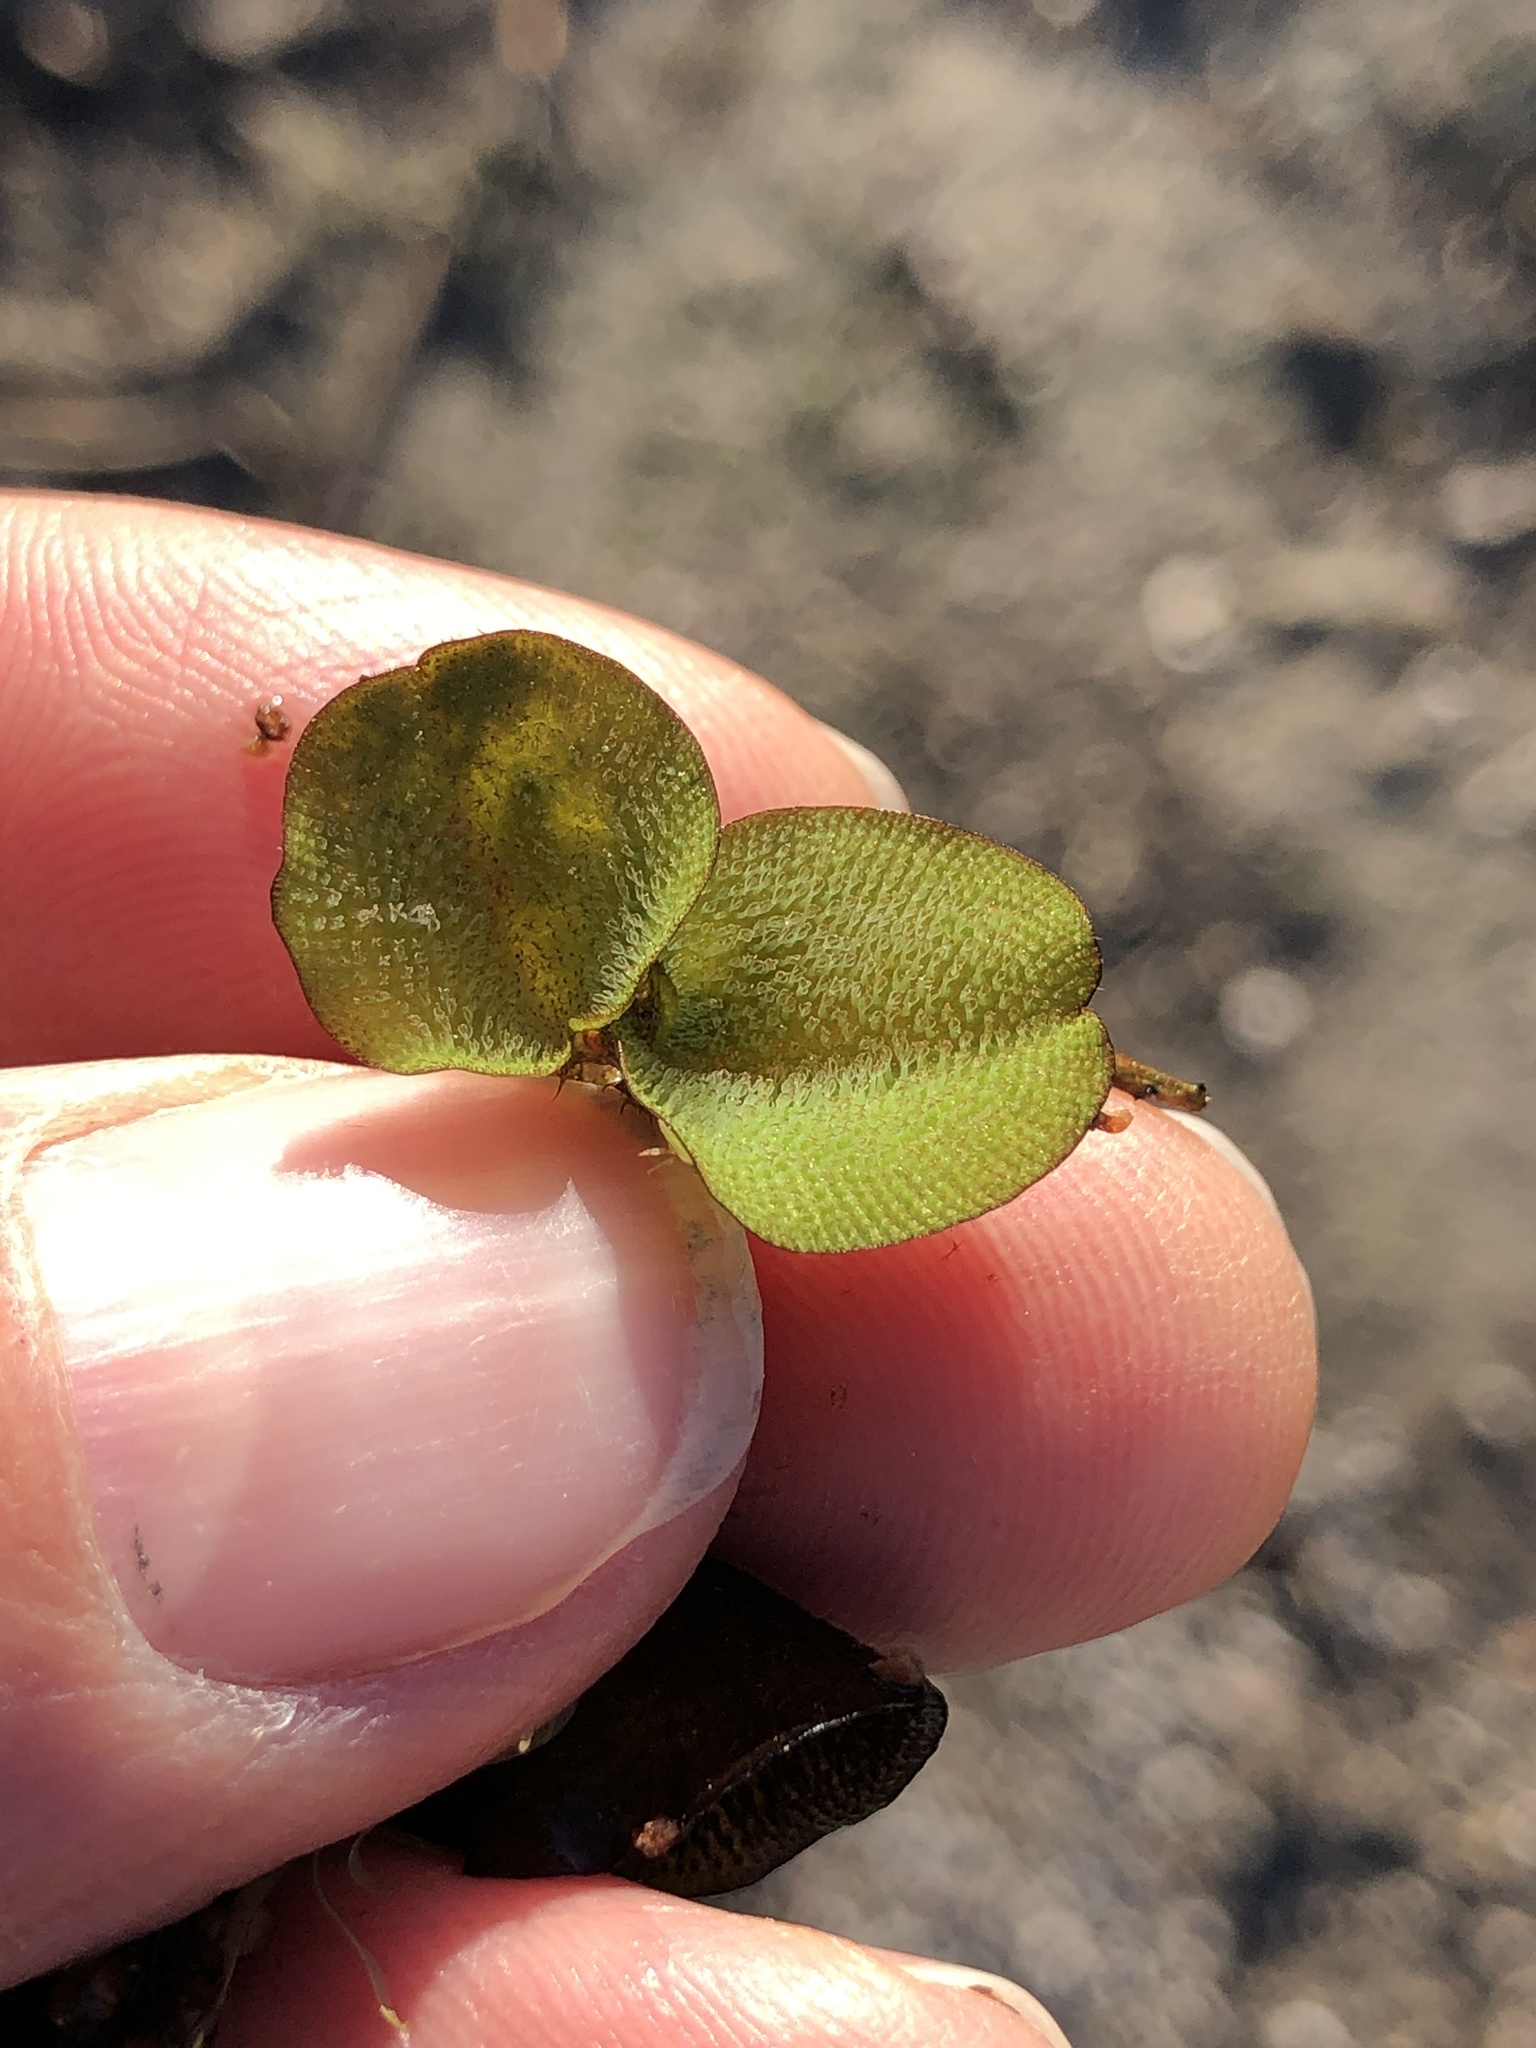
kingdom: Plantae
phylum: Tracheophyta
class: Polypodiopsida
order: Salviniales
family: Salviniaceae
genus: Salvinia
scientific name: Salvinia molesta
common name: Kariba weed
